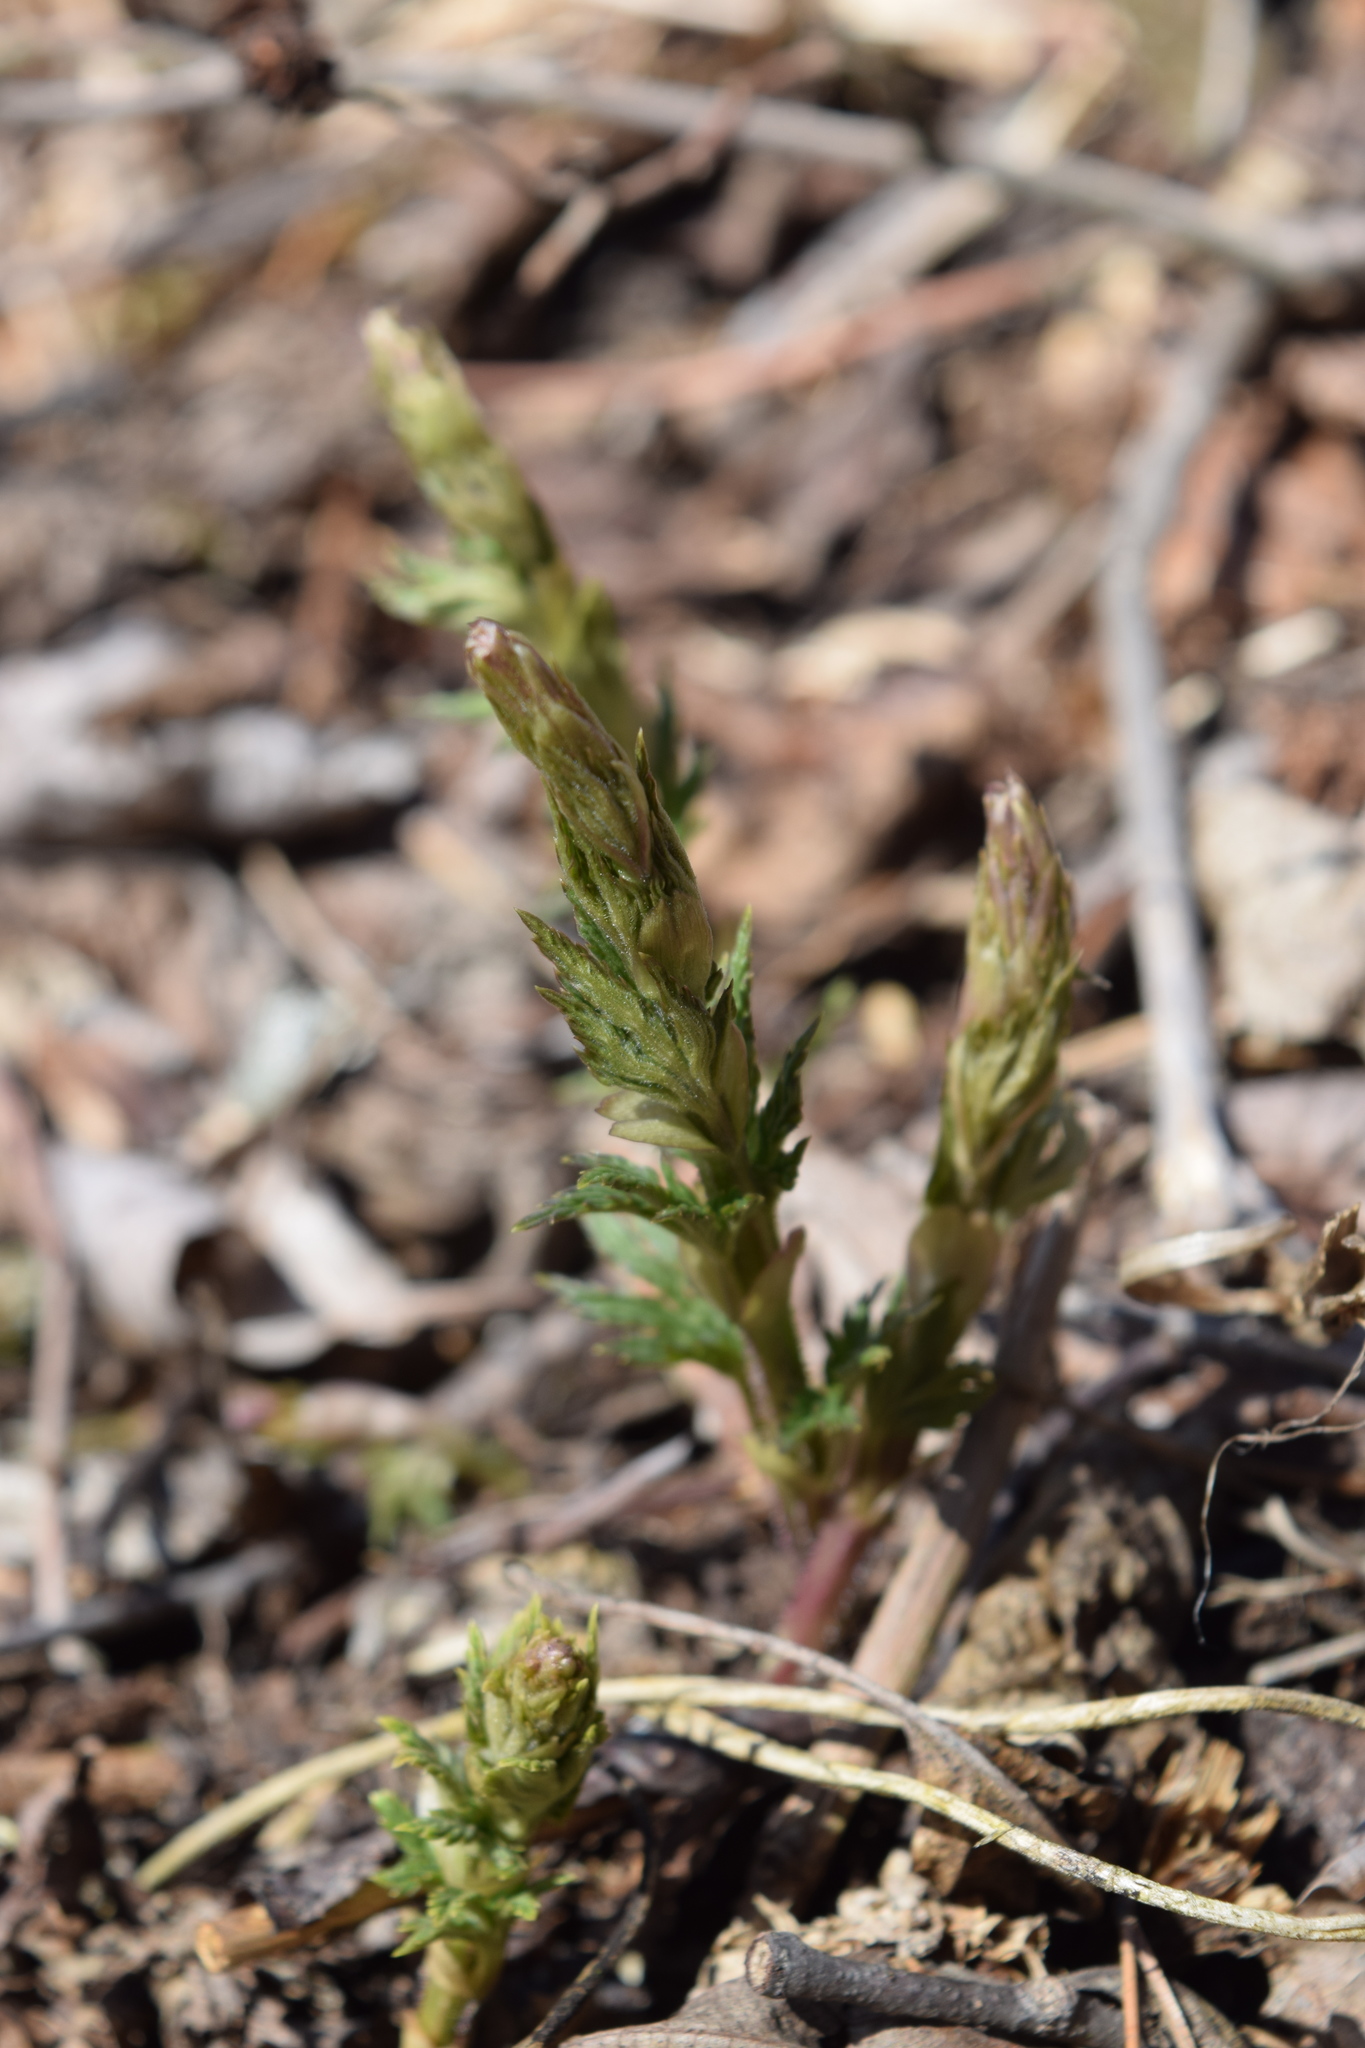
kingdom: Plantae
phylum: Tracheophyta
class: Magnoliopsida
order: Rosales
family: Cannabaceae
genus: Humulus
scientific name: Humulus lupulus
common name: Hop
